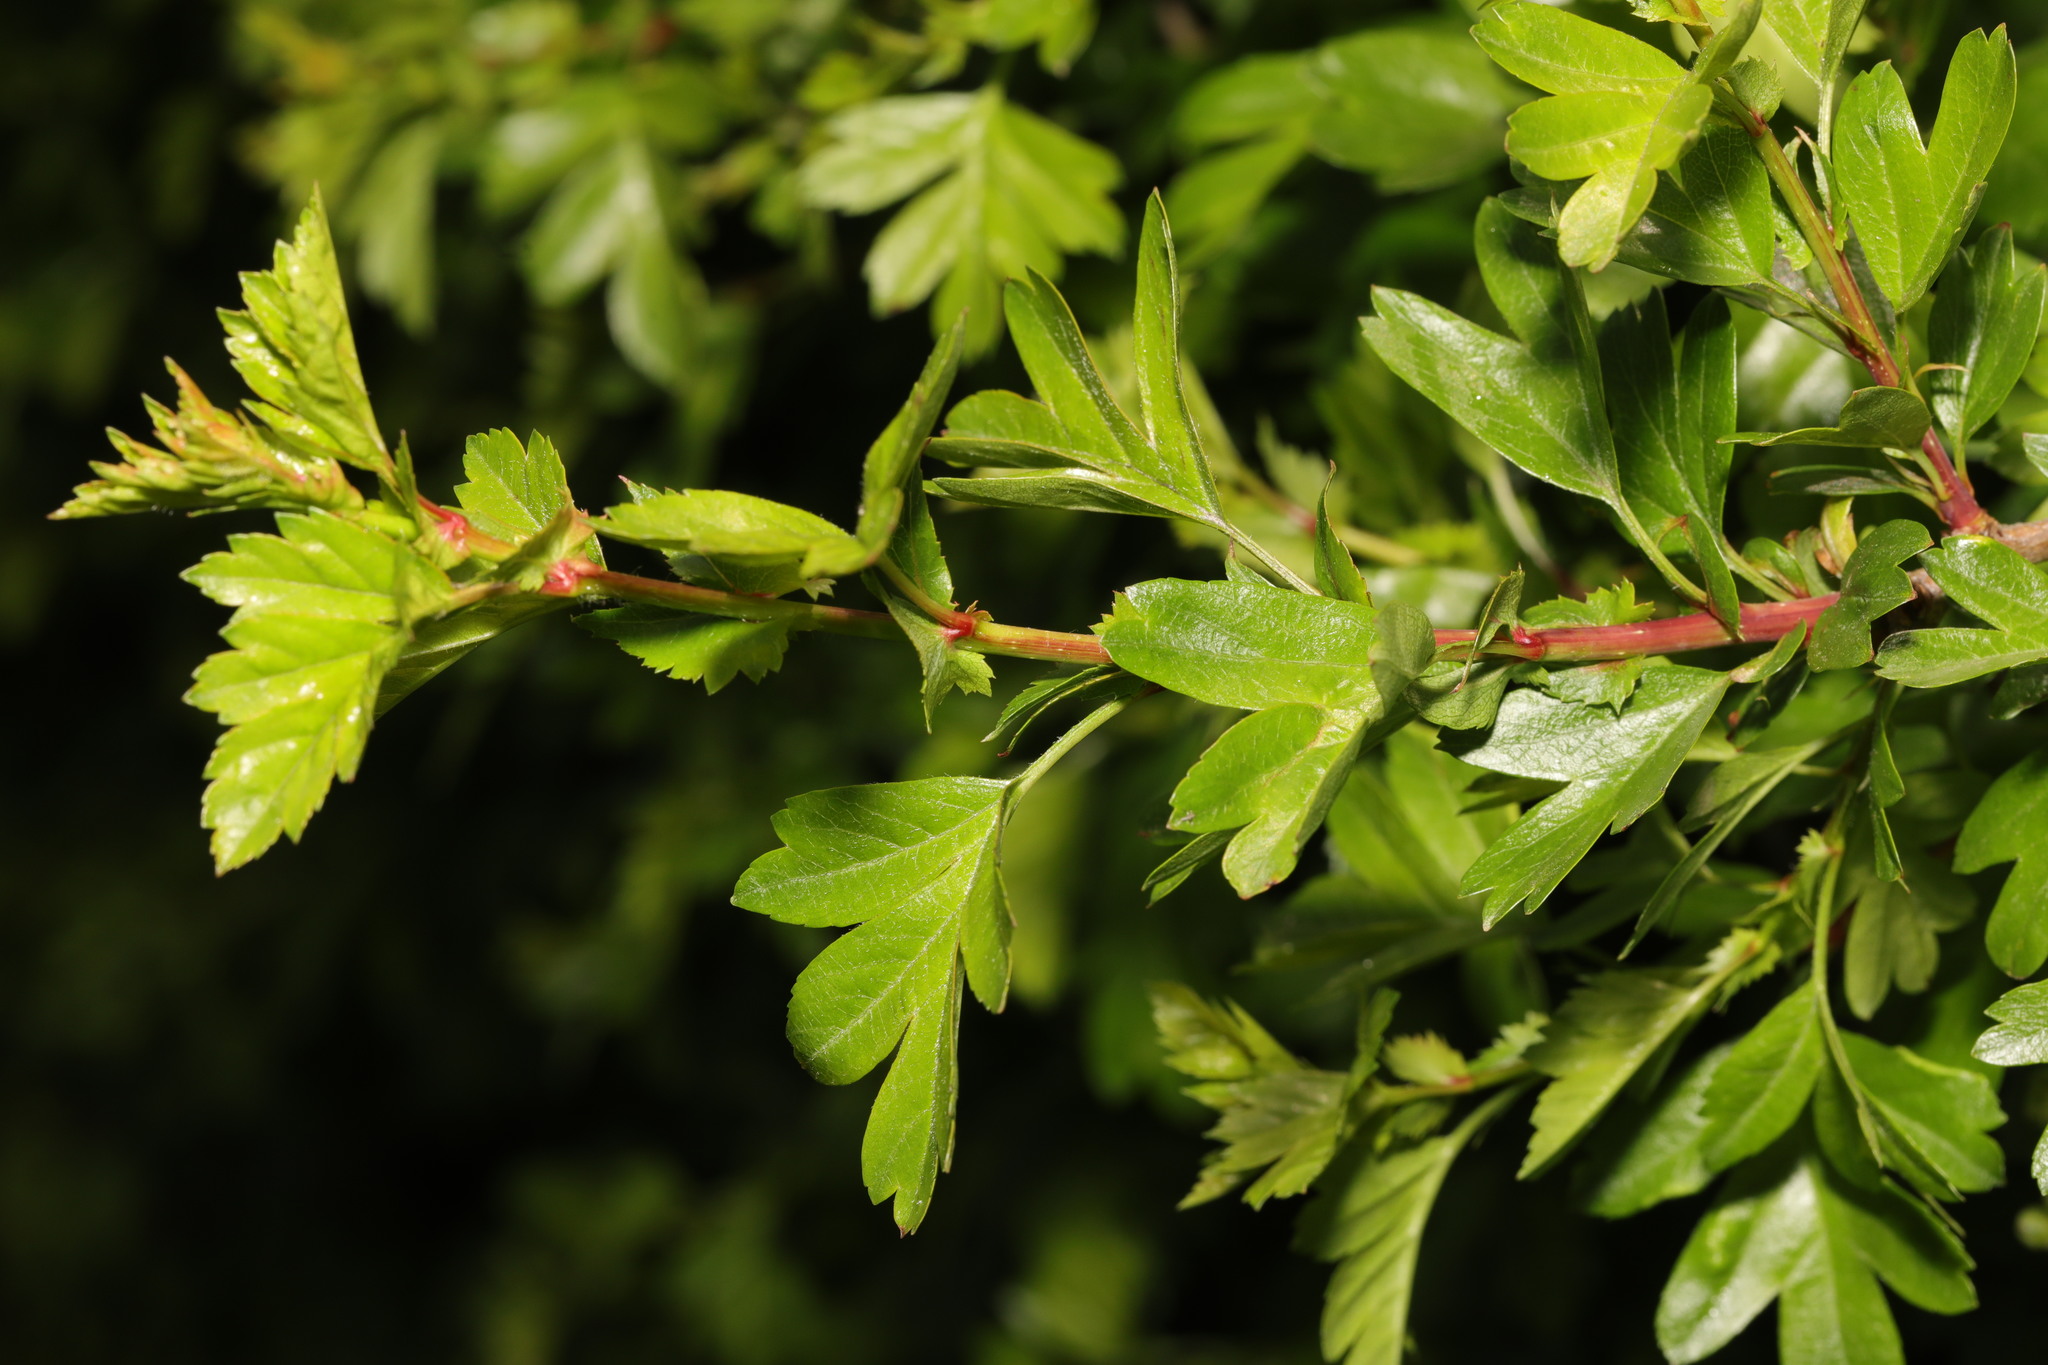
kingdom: Plantae
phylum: Tracheophyta
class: Magnoliopsida
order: Rosales
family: Rosaceae
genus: Crataegus
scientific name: Crataegus monogyna
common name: Hawthorn
